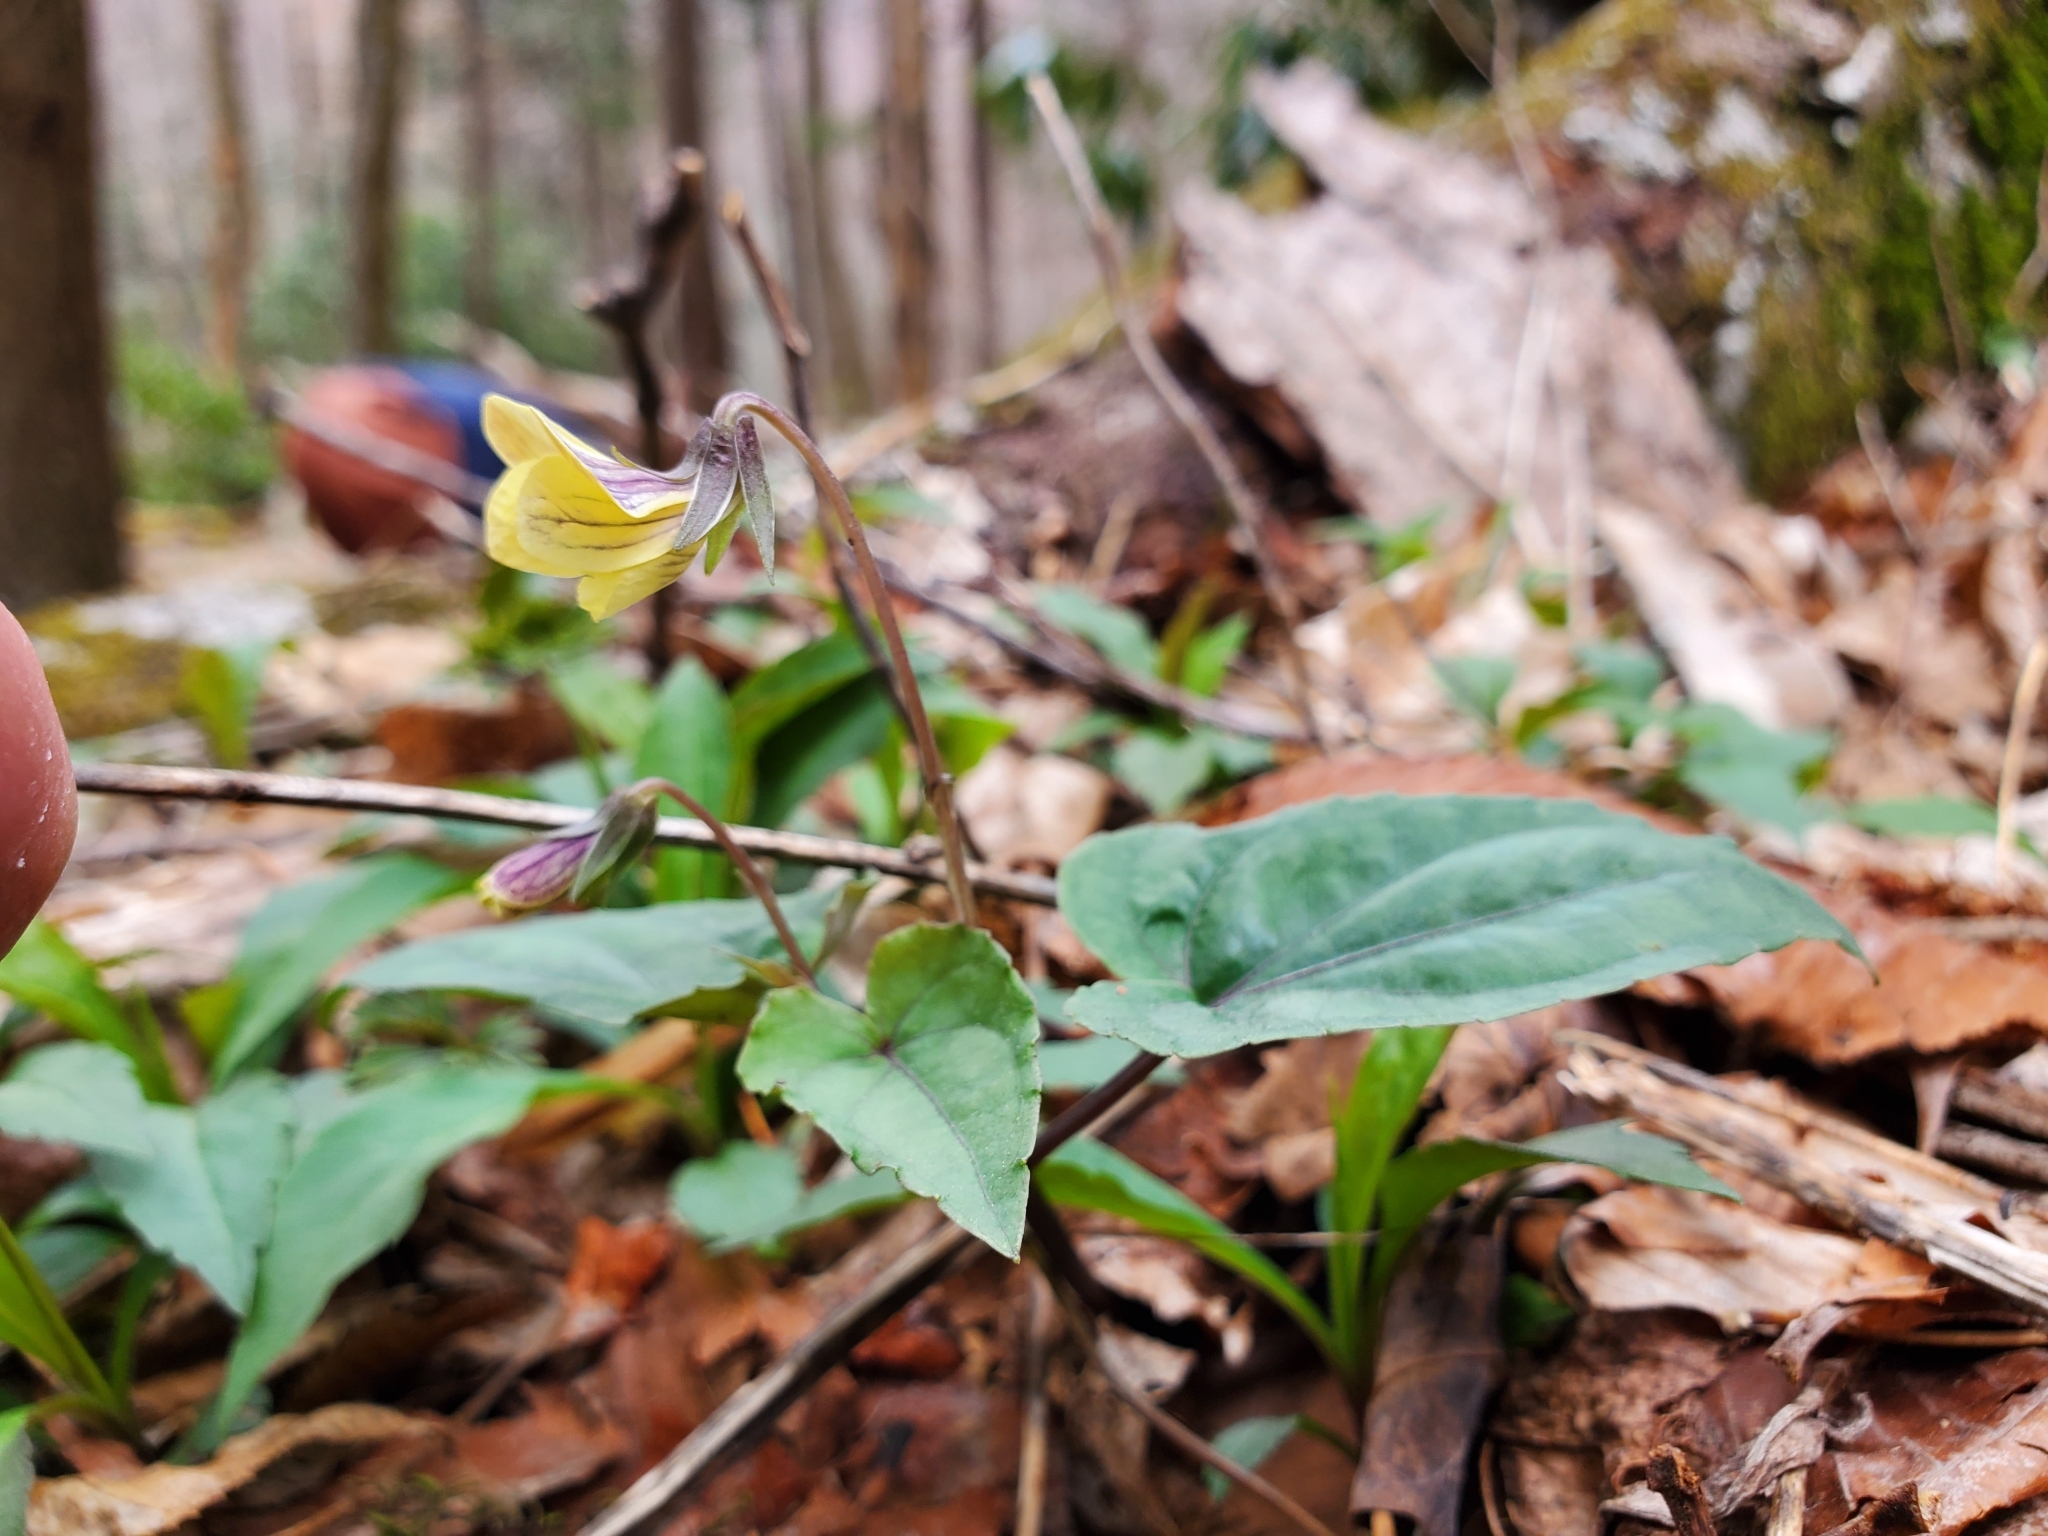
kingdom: Plantae
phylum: Tracheophyta
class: Magnoliopsida
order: Malpighiales
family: Violaceae
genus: Viola
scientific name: Viola hastata
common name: Spear-leaf violet
